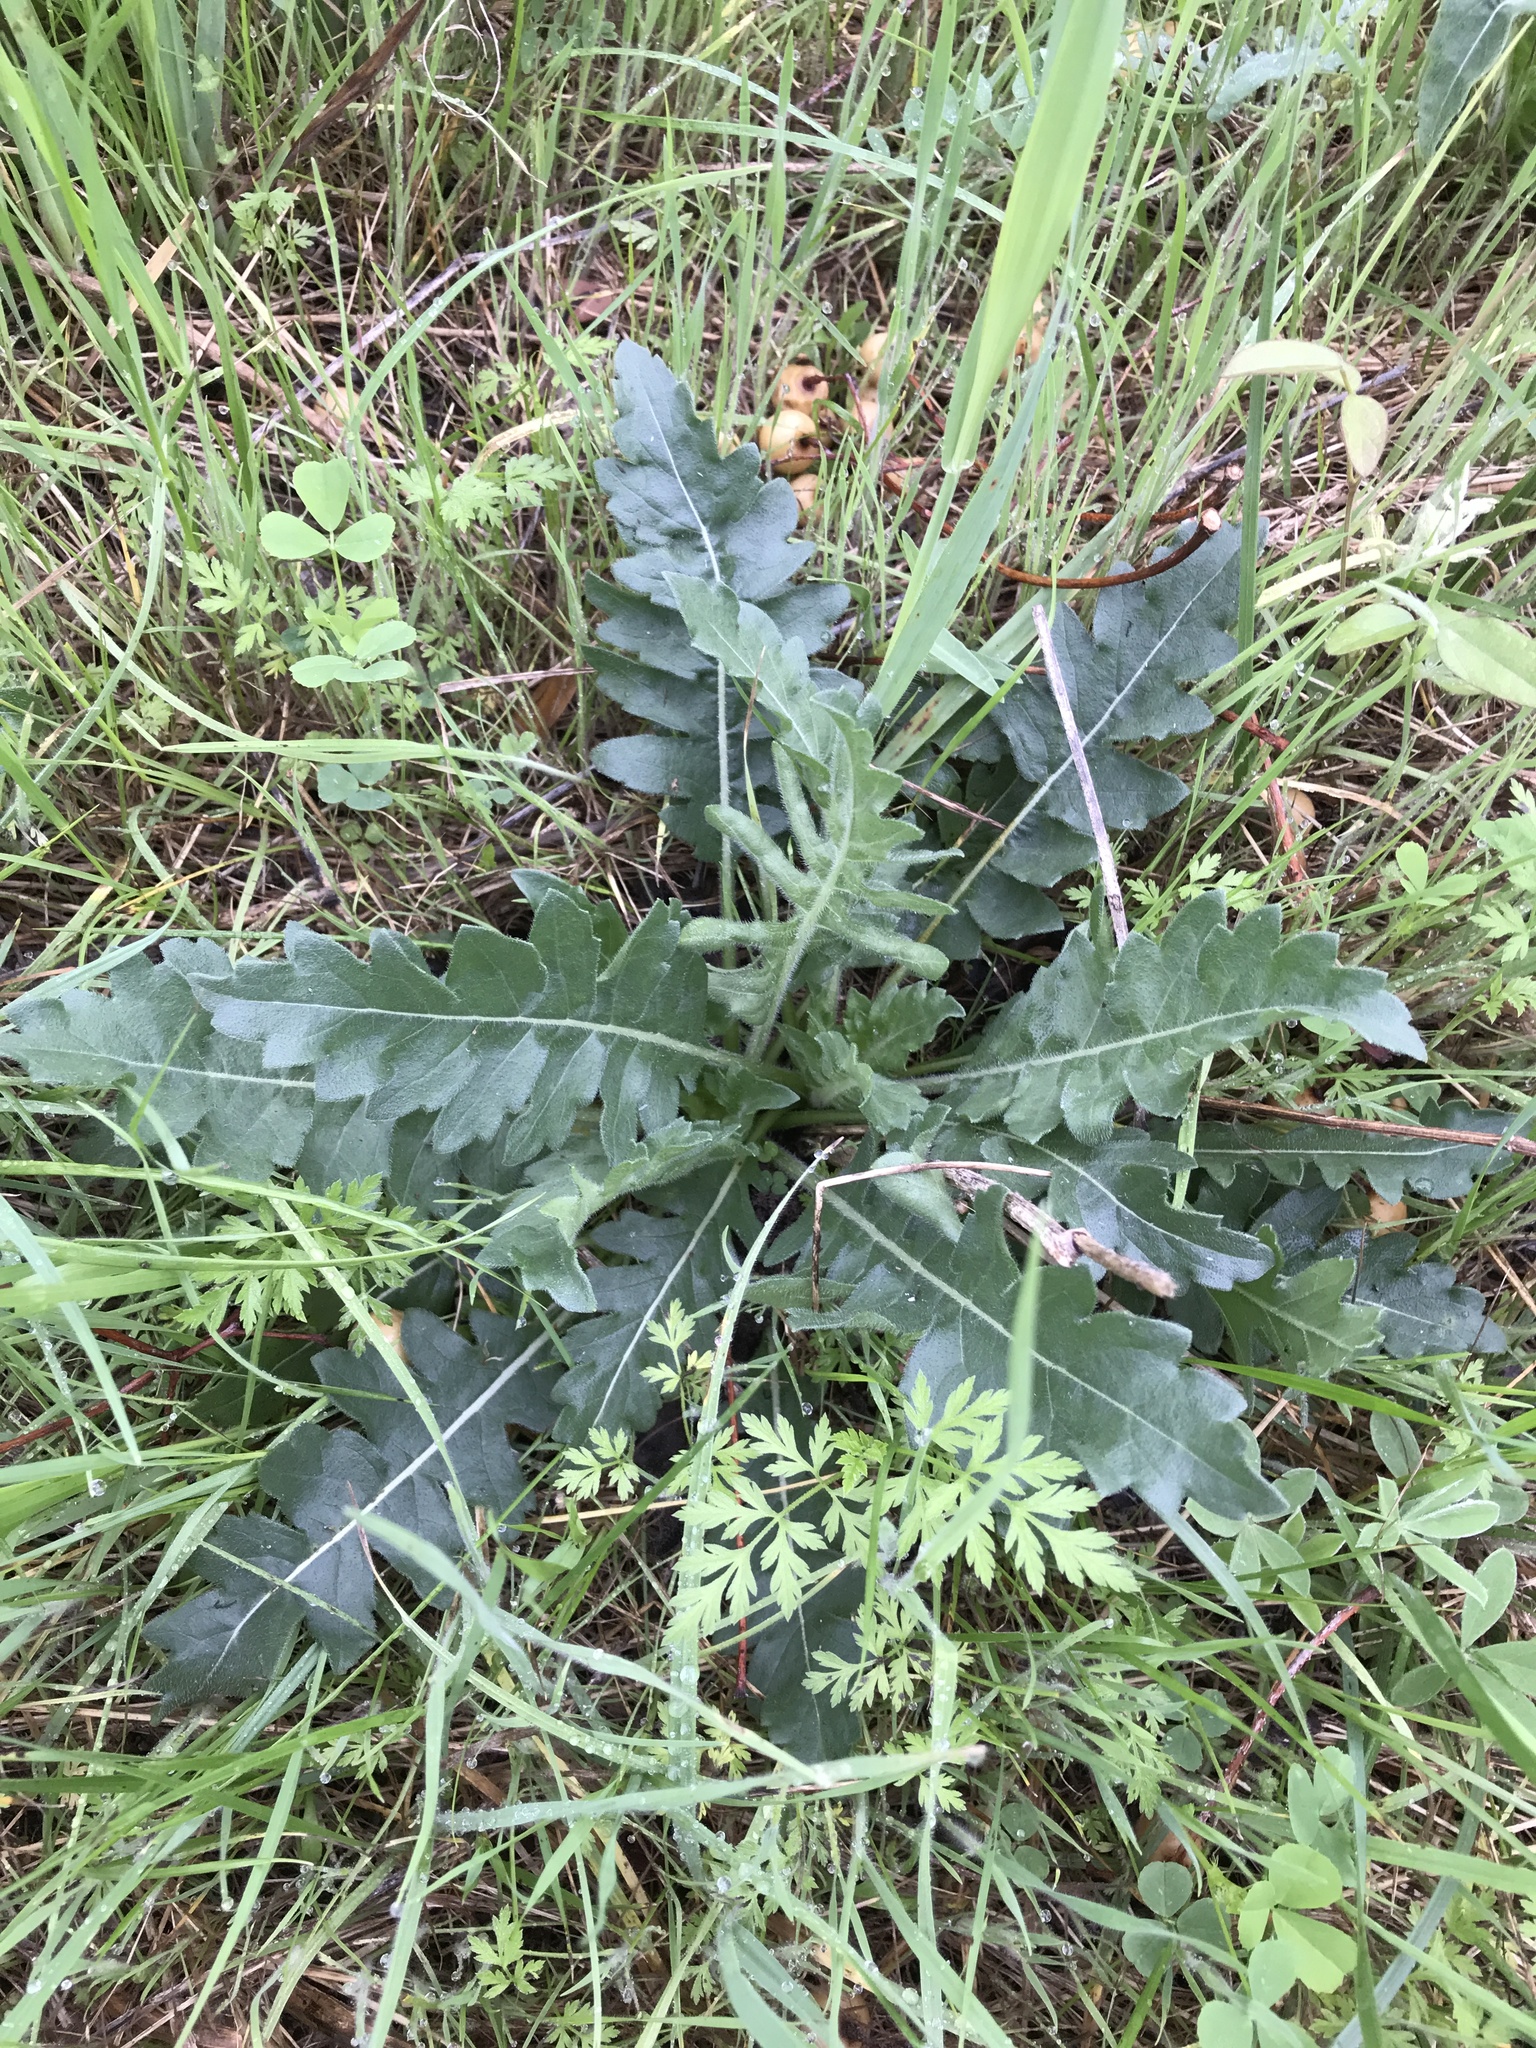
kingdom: Plantae
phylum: Tracheophyta
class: Magnoliopsida
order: Asterales
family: Asteraceae
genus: Engelmannia
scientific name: Engelmannia peristenia
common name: Engelmann's daisy
